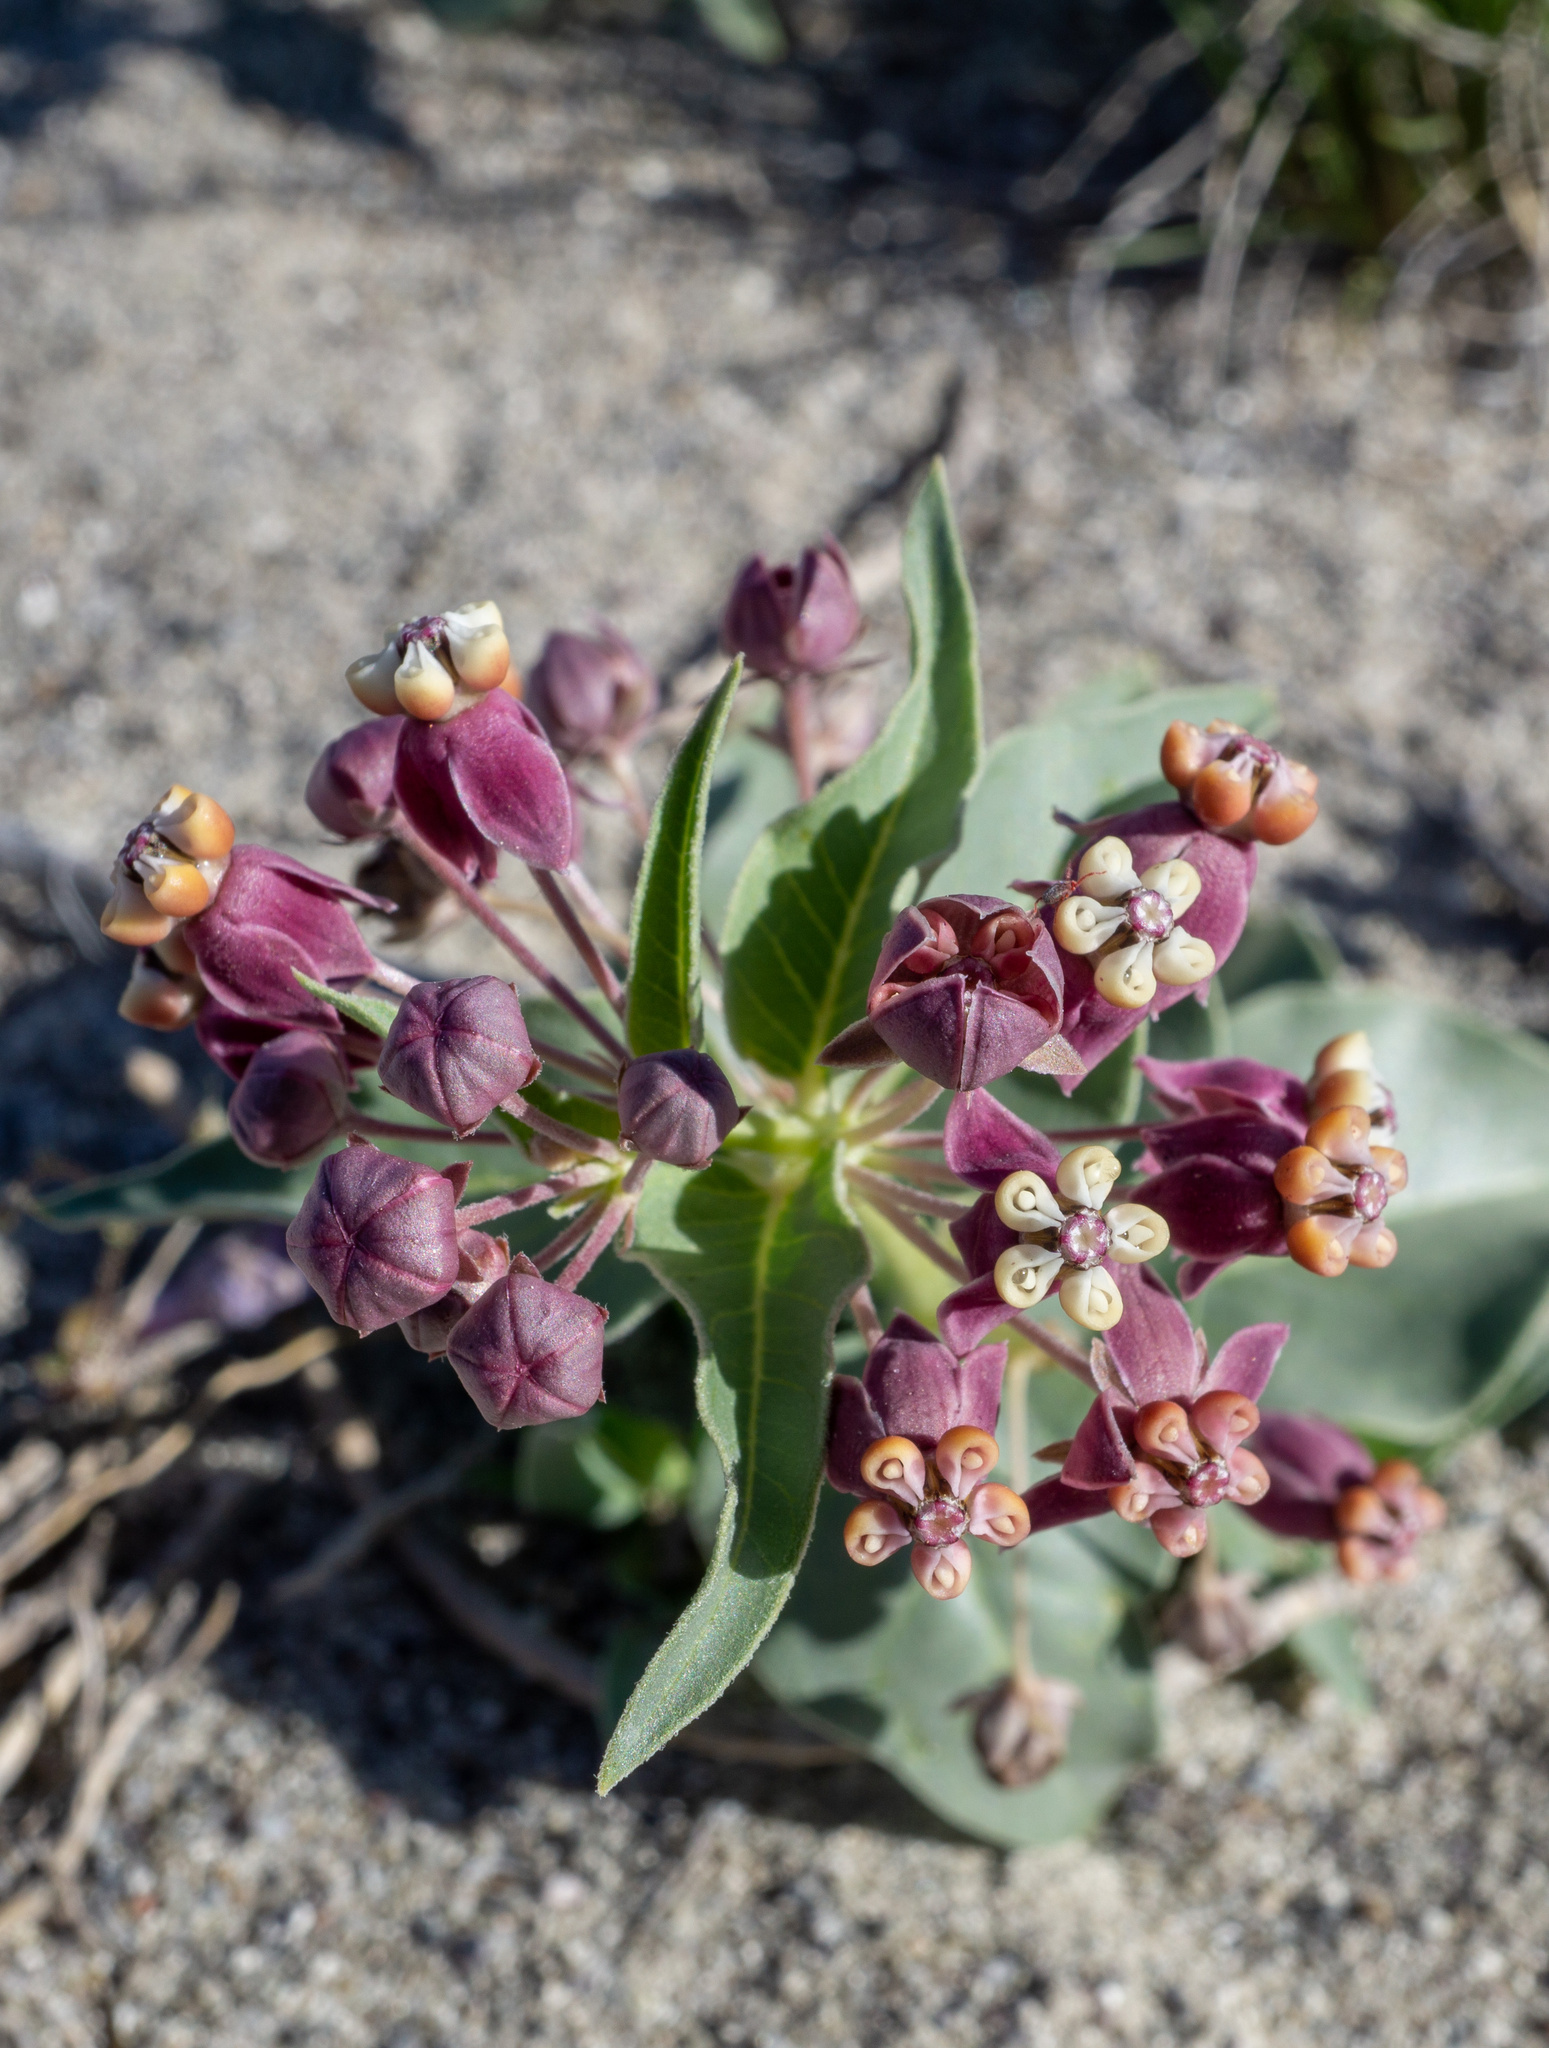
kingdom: Plantae
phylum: Tracheophyta
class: Magnoliopsida
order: Gentianales
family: Apocynaceae
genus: Asclepias
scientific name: Asclepias ruthiae
